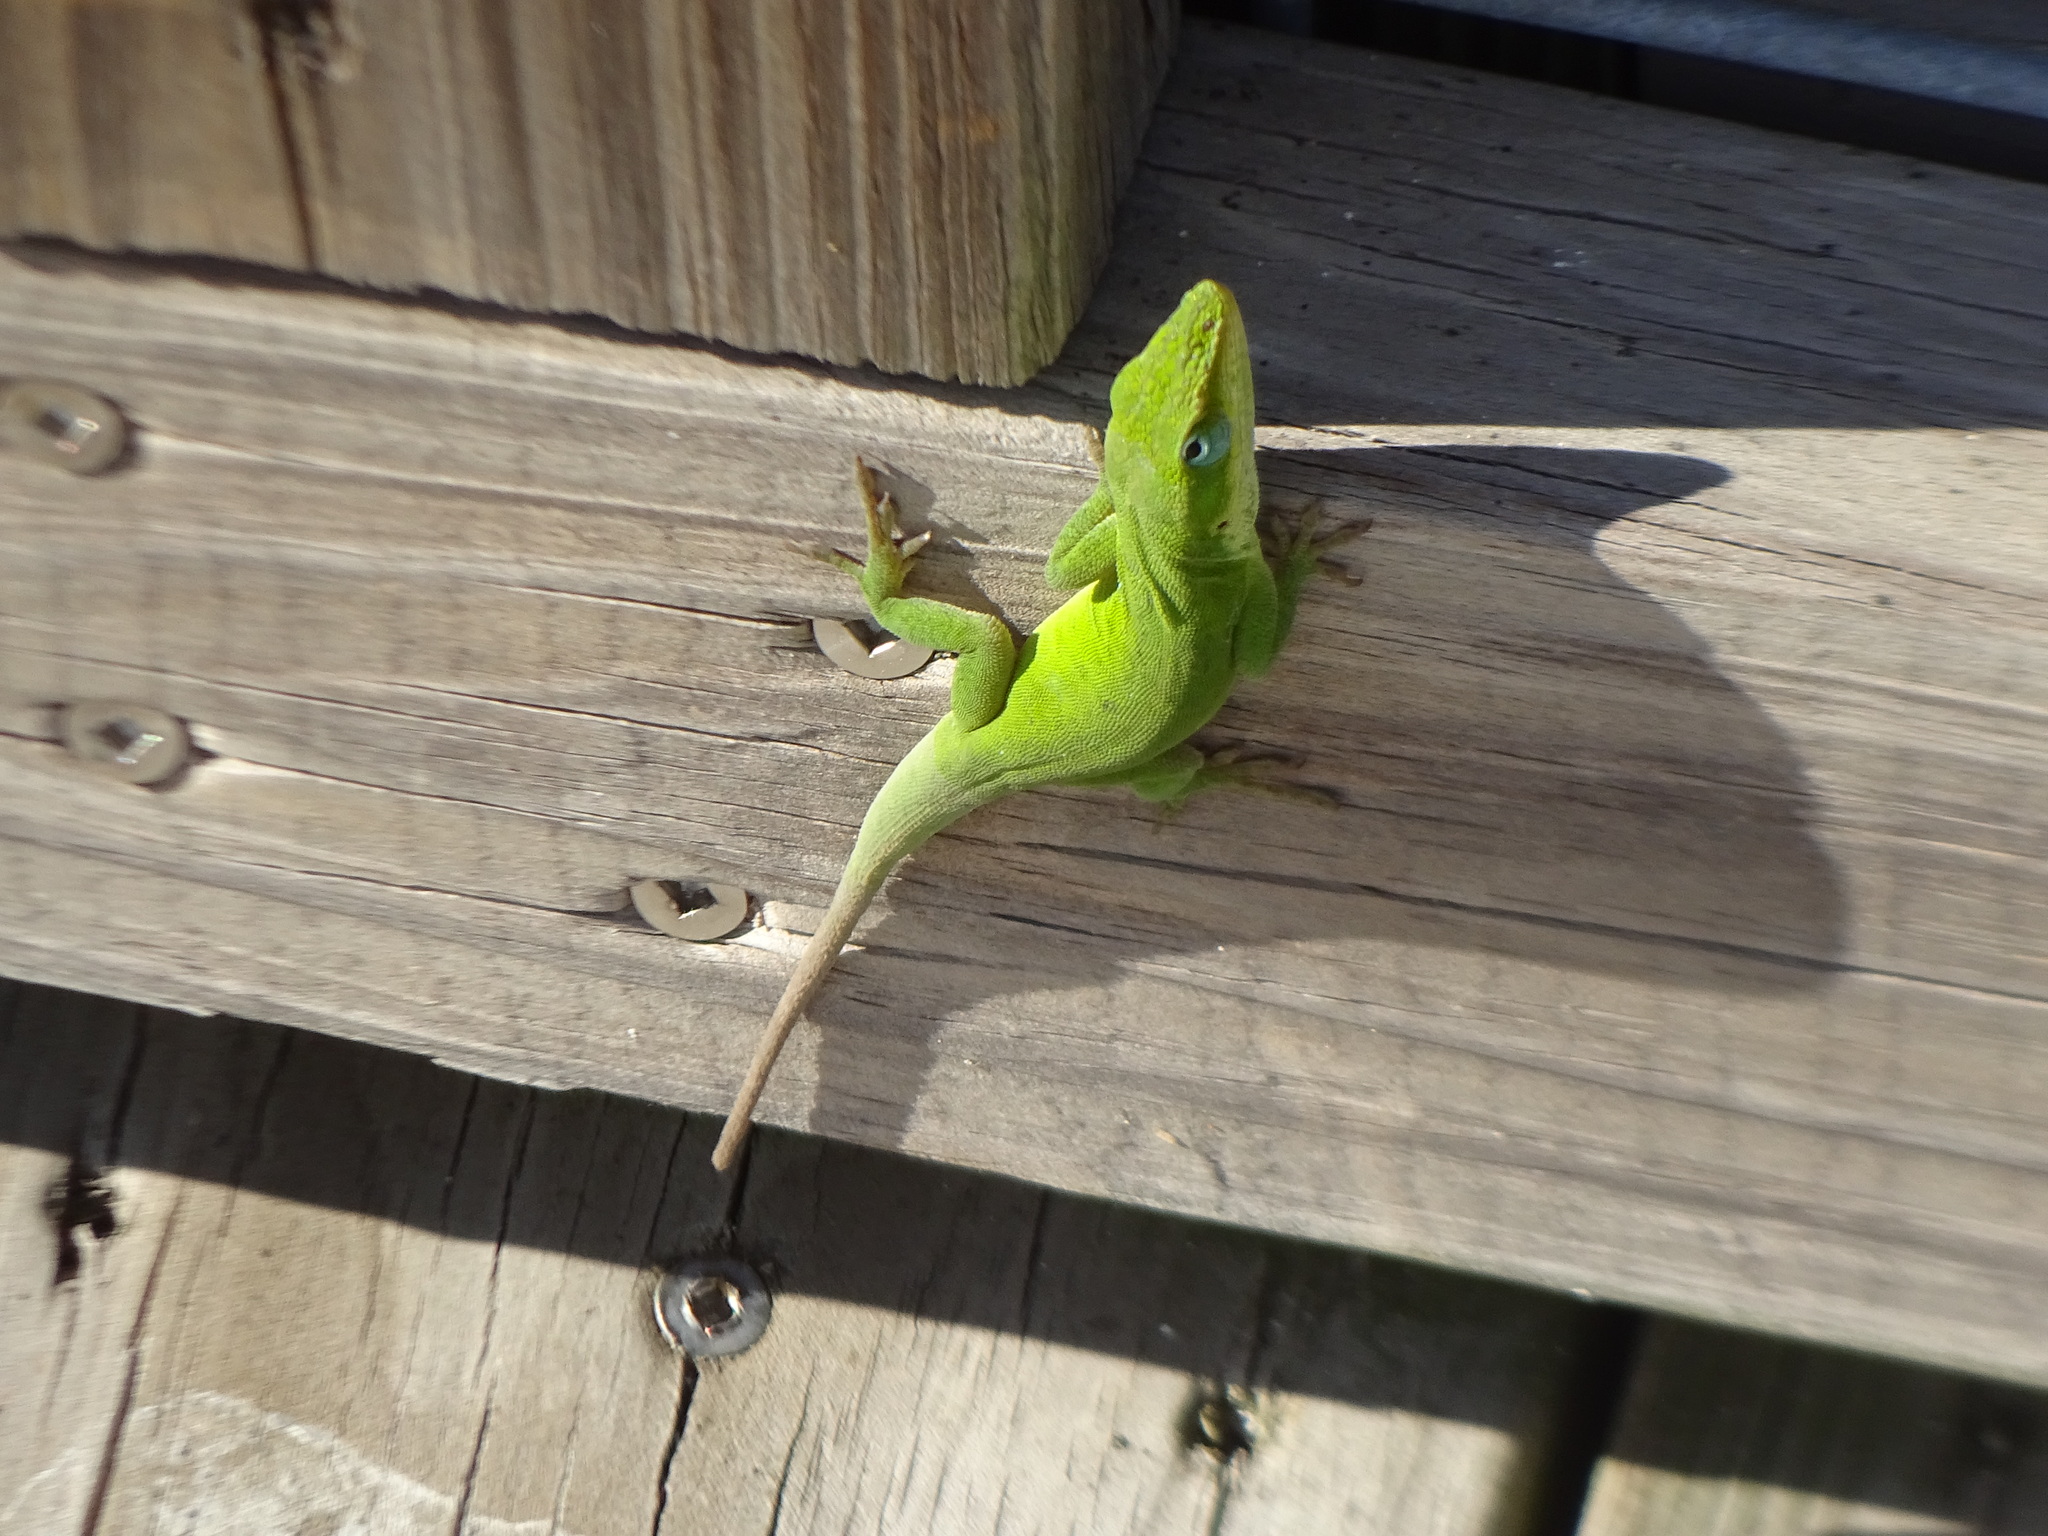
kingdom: Animalia
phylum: Chordata
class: Squamata
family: Dactyloidae
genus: Anolis
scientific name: Anolis carolinensis
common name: Green anole
